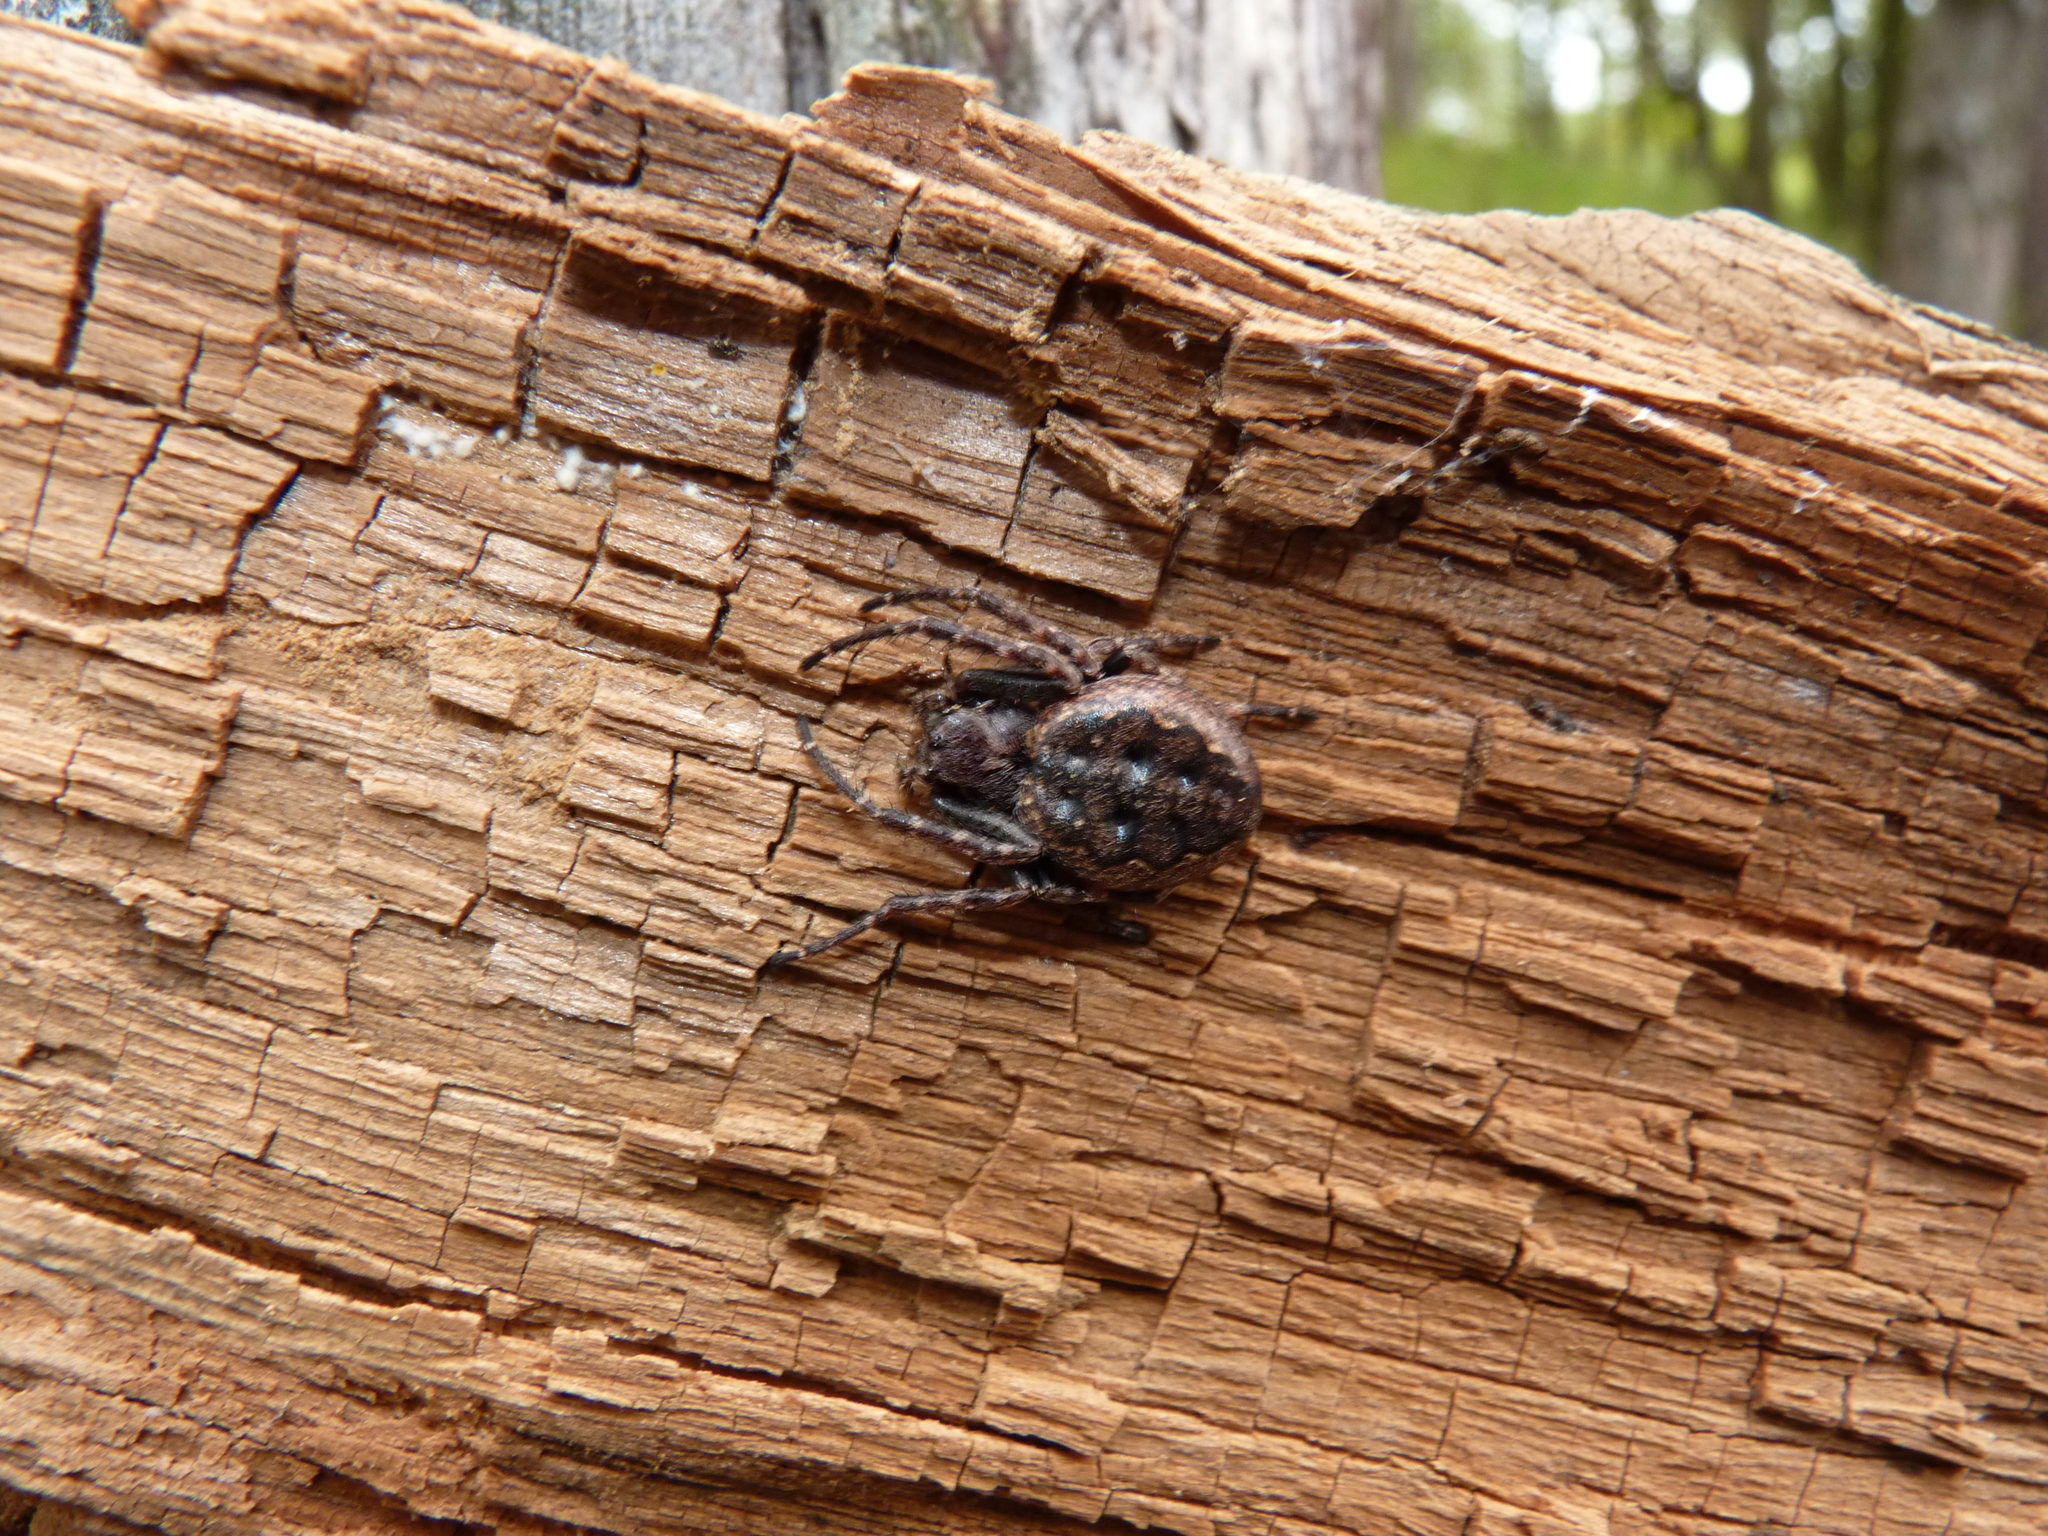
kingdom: Animalia
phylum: Arthropoda
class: Arachnida
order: Araneae
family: Araneidae
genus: Nuctenea
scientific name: Nuctenea umbratica
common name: Toad spider
